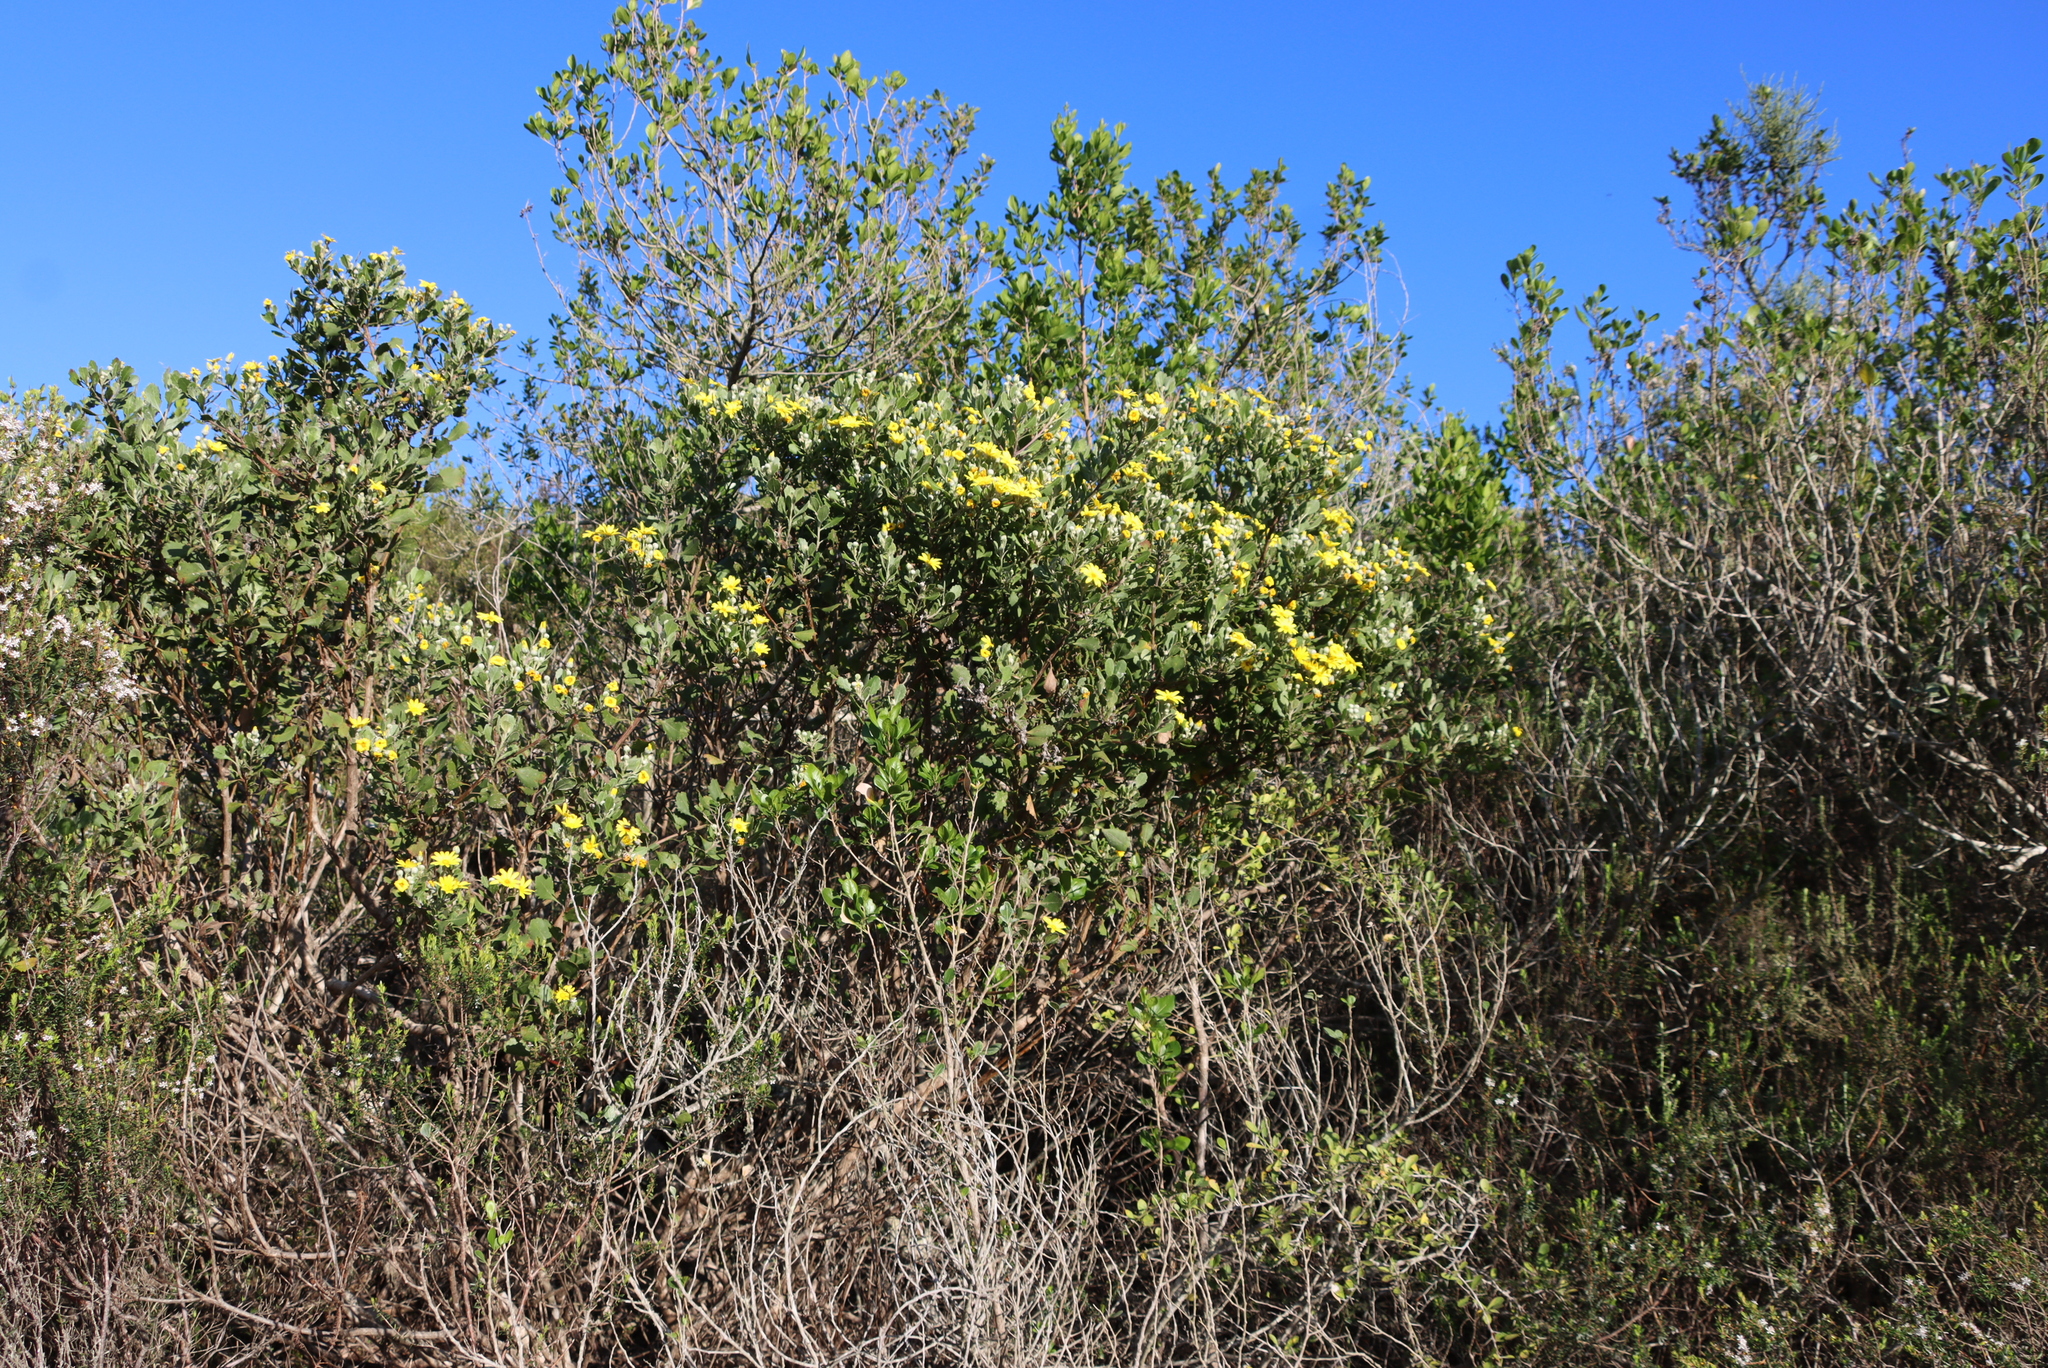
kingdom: Plantae
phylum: Tracheophyta
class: Magnoliopsida
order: Asterales
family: Asteraceae
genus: Osteospermum
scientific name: Osteospermum moniliferum
